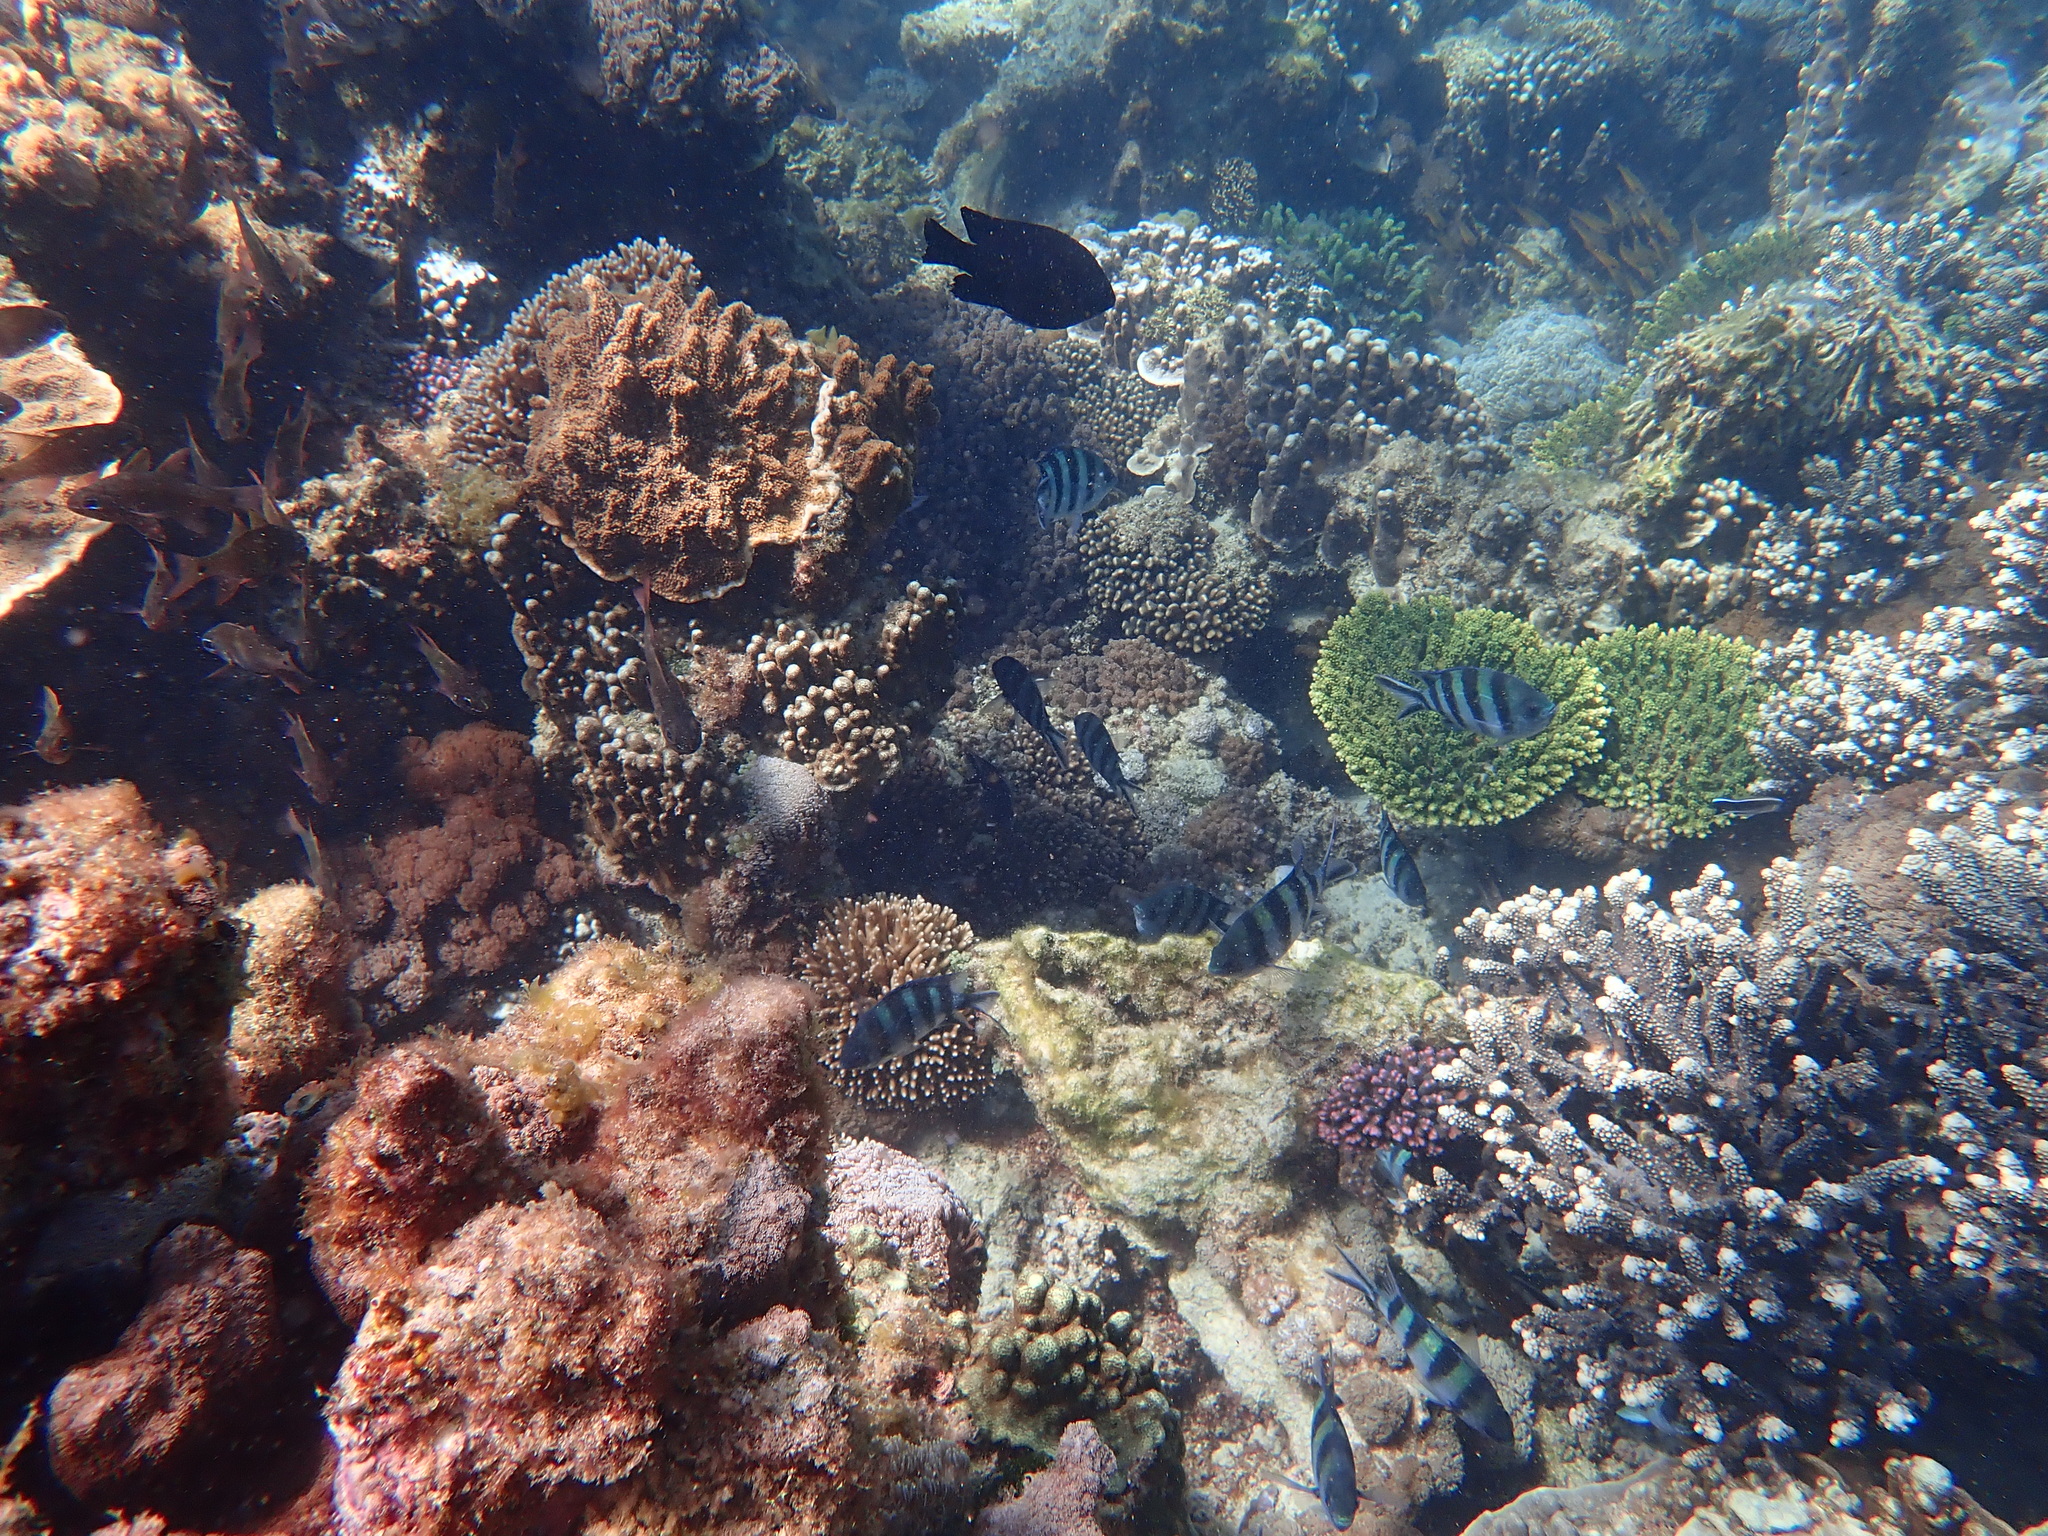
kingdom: Animalia
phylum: Chordata
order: Perciformes
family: Pomacentridae
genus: Abudefduf
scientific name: Abudefduf sexfasciatus
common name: Scissortail sergeant
